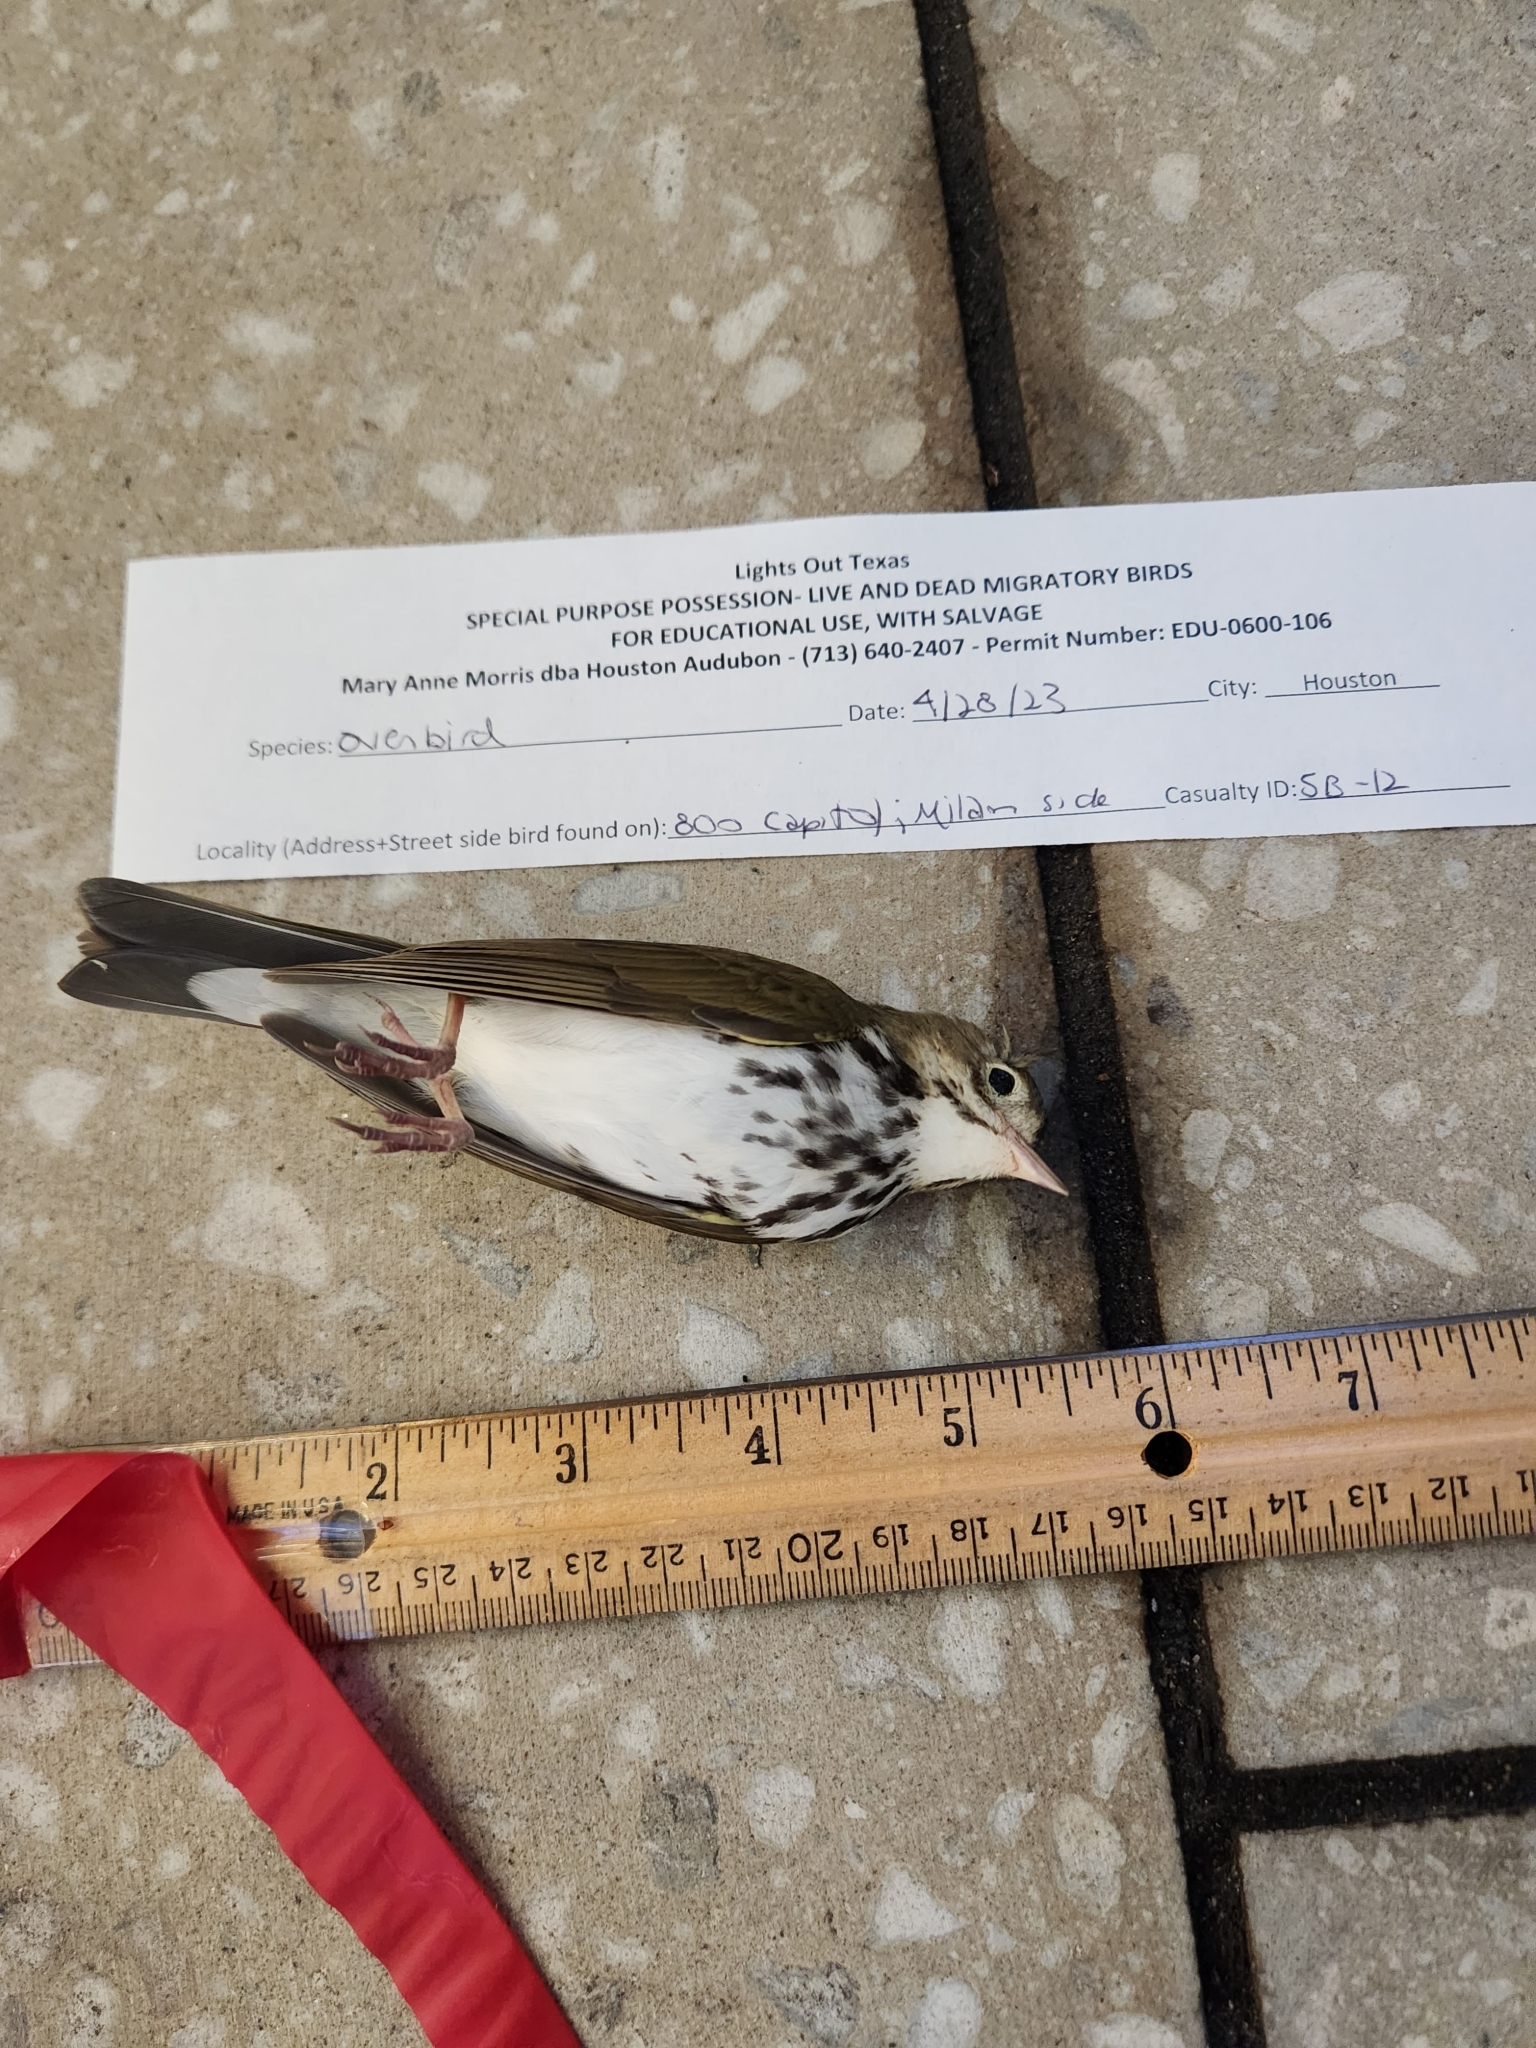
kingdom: Animalia
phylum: Chordata
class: Aves
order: Passeriformes
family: Parulidae
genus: Seiurus
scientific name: Seiurus aurocapilla
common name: Ovenbird
